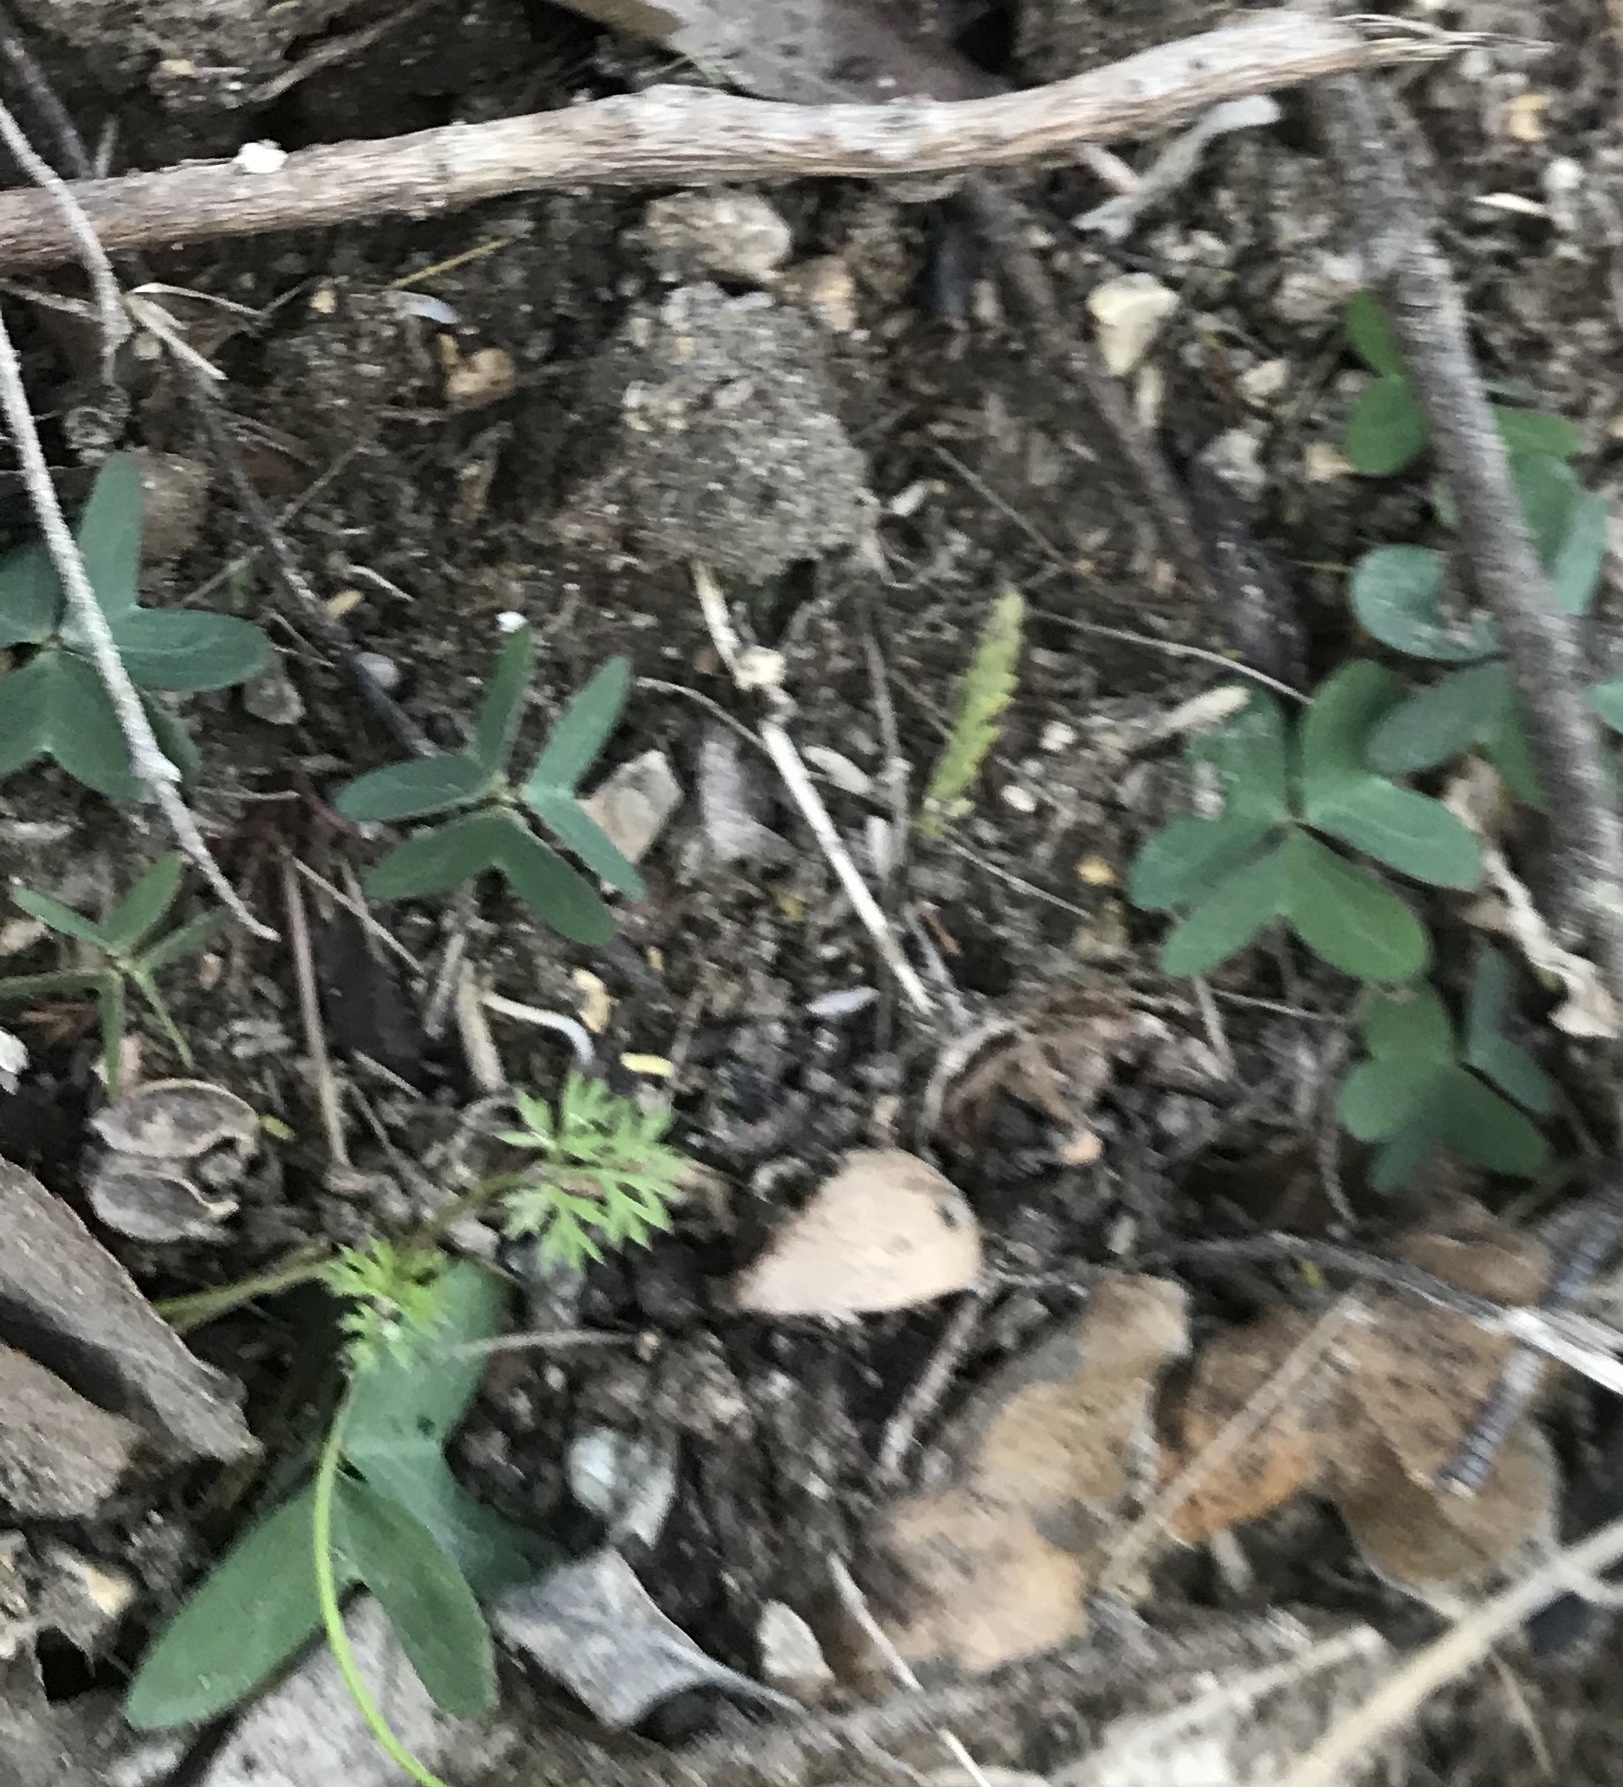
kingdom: Plantae
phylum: Tracheophyta
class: Magnoliopsida
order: Oxalidales
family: Oxalidaceae
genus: Oxalis
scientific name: Oxalis drummondii
